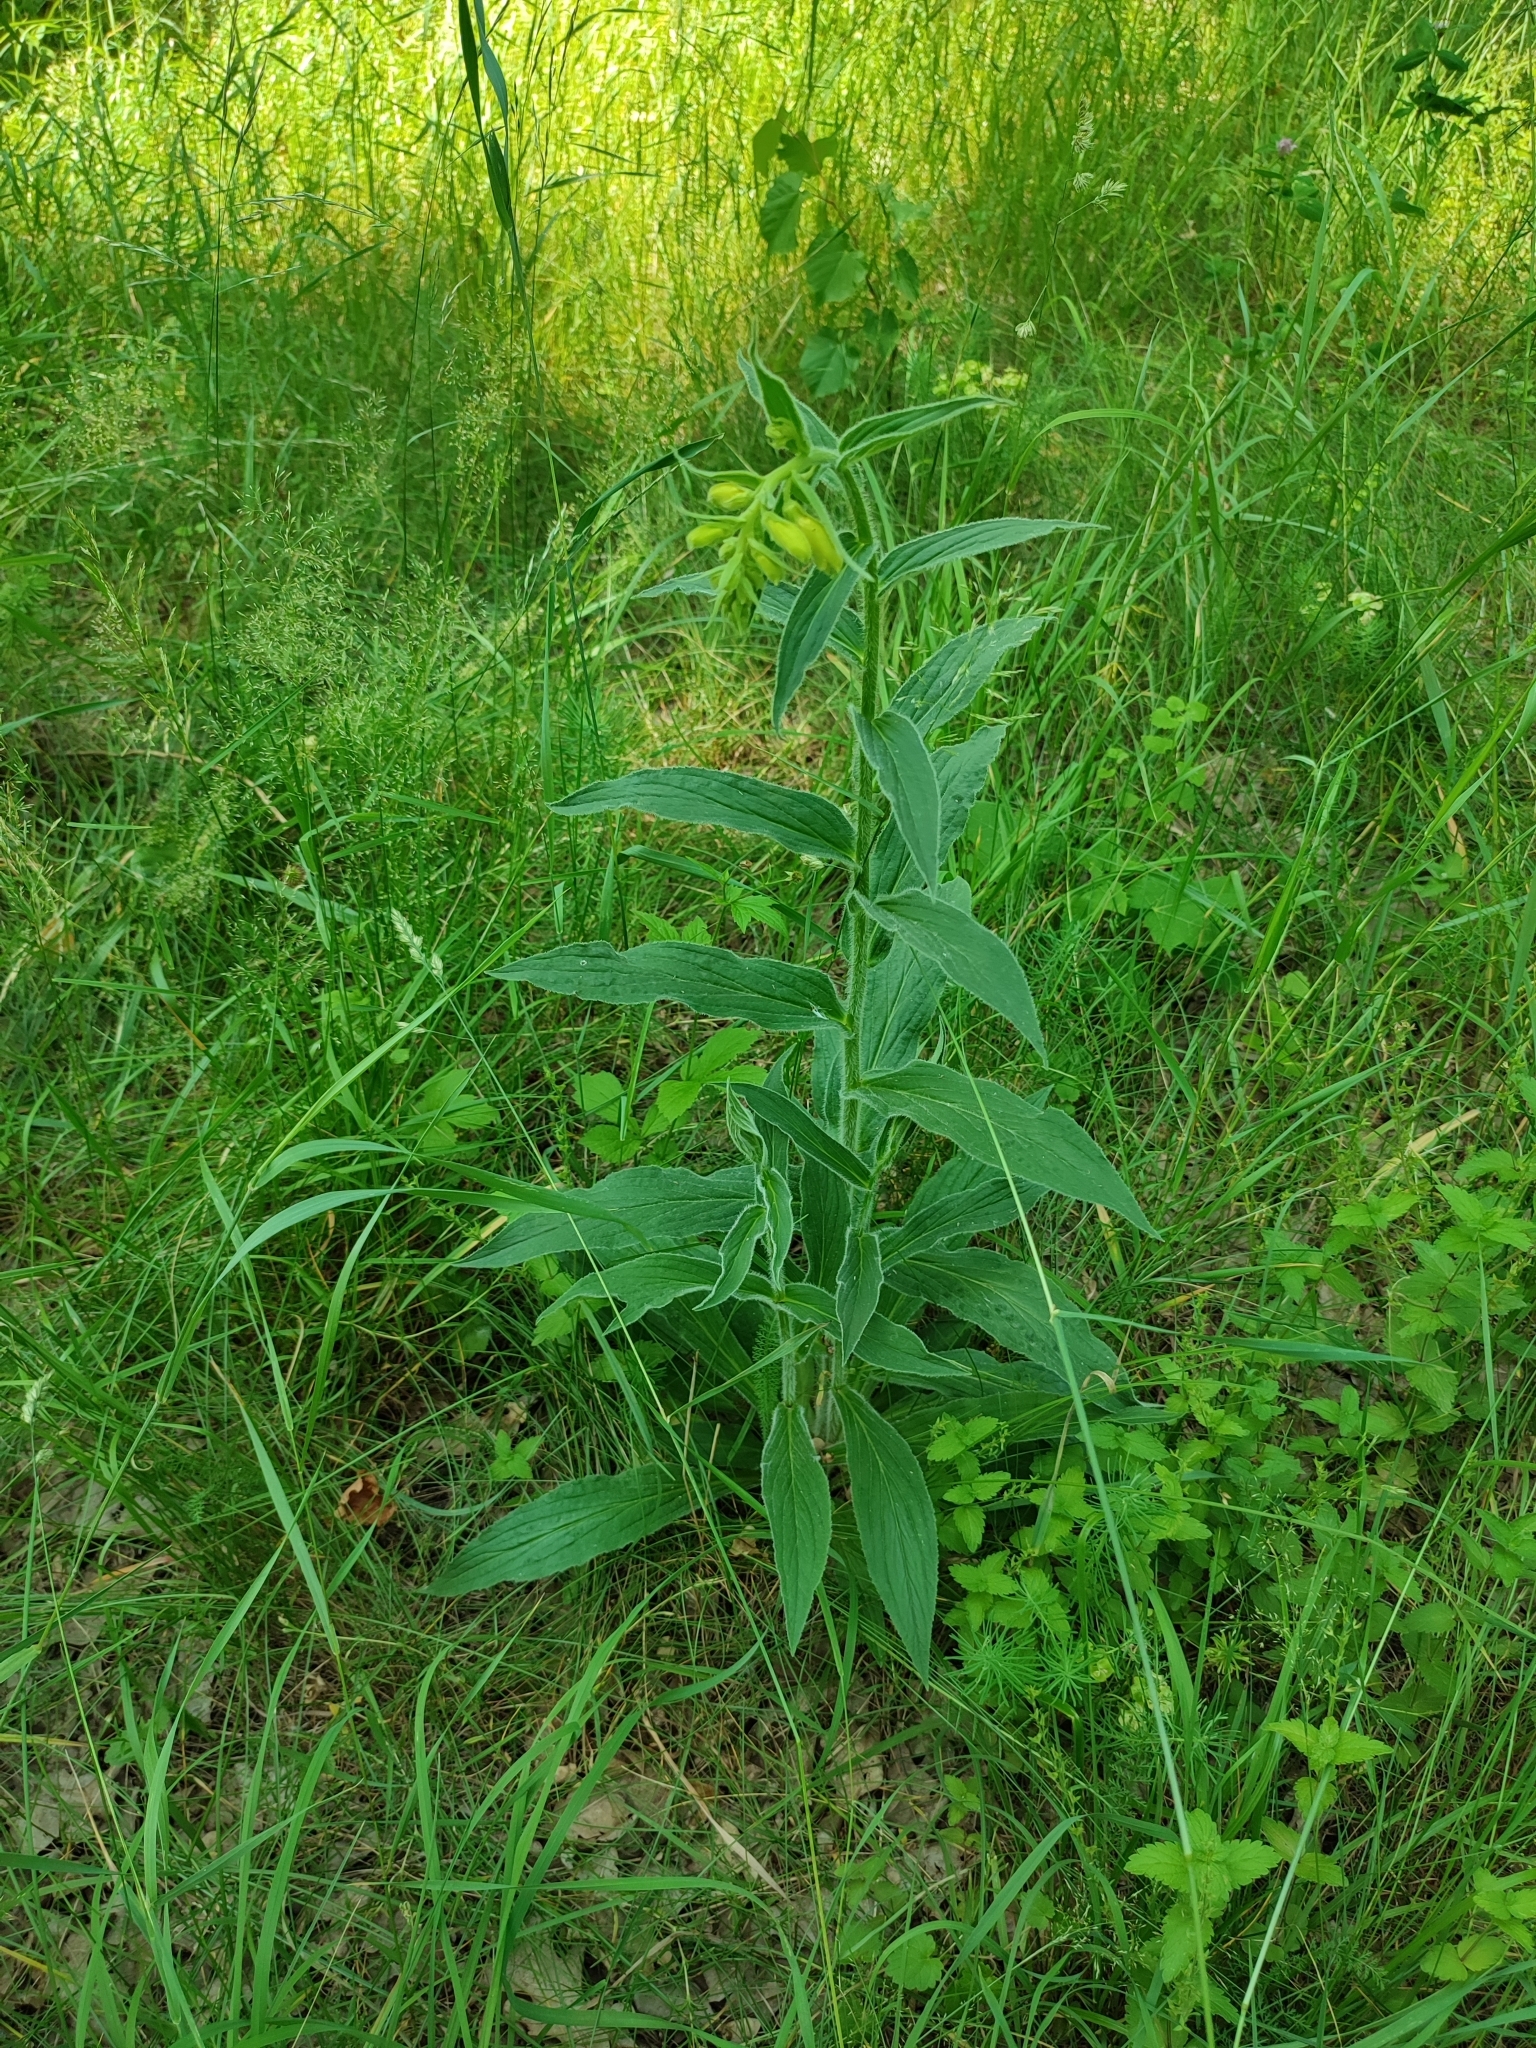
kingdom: Plantae
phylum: Tracheophyta
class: Magnoliopsida
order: Lamiales
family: Plantaginaceae
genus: Digitalis
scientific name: Digitalis grandiflora
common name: Yellow foxglove
